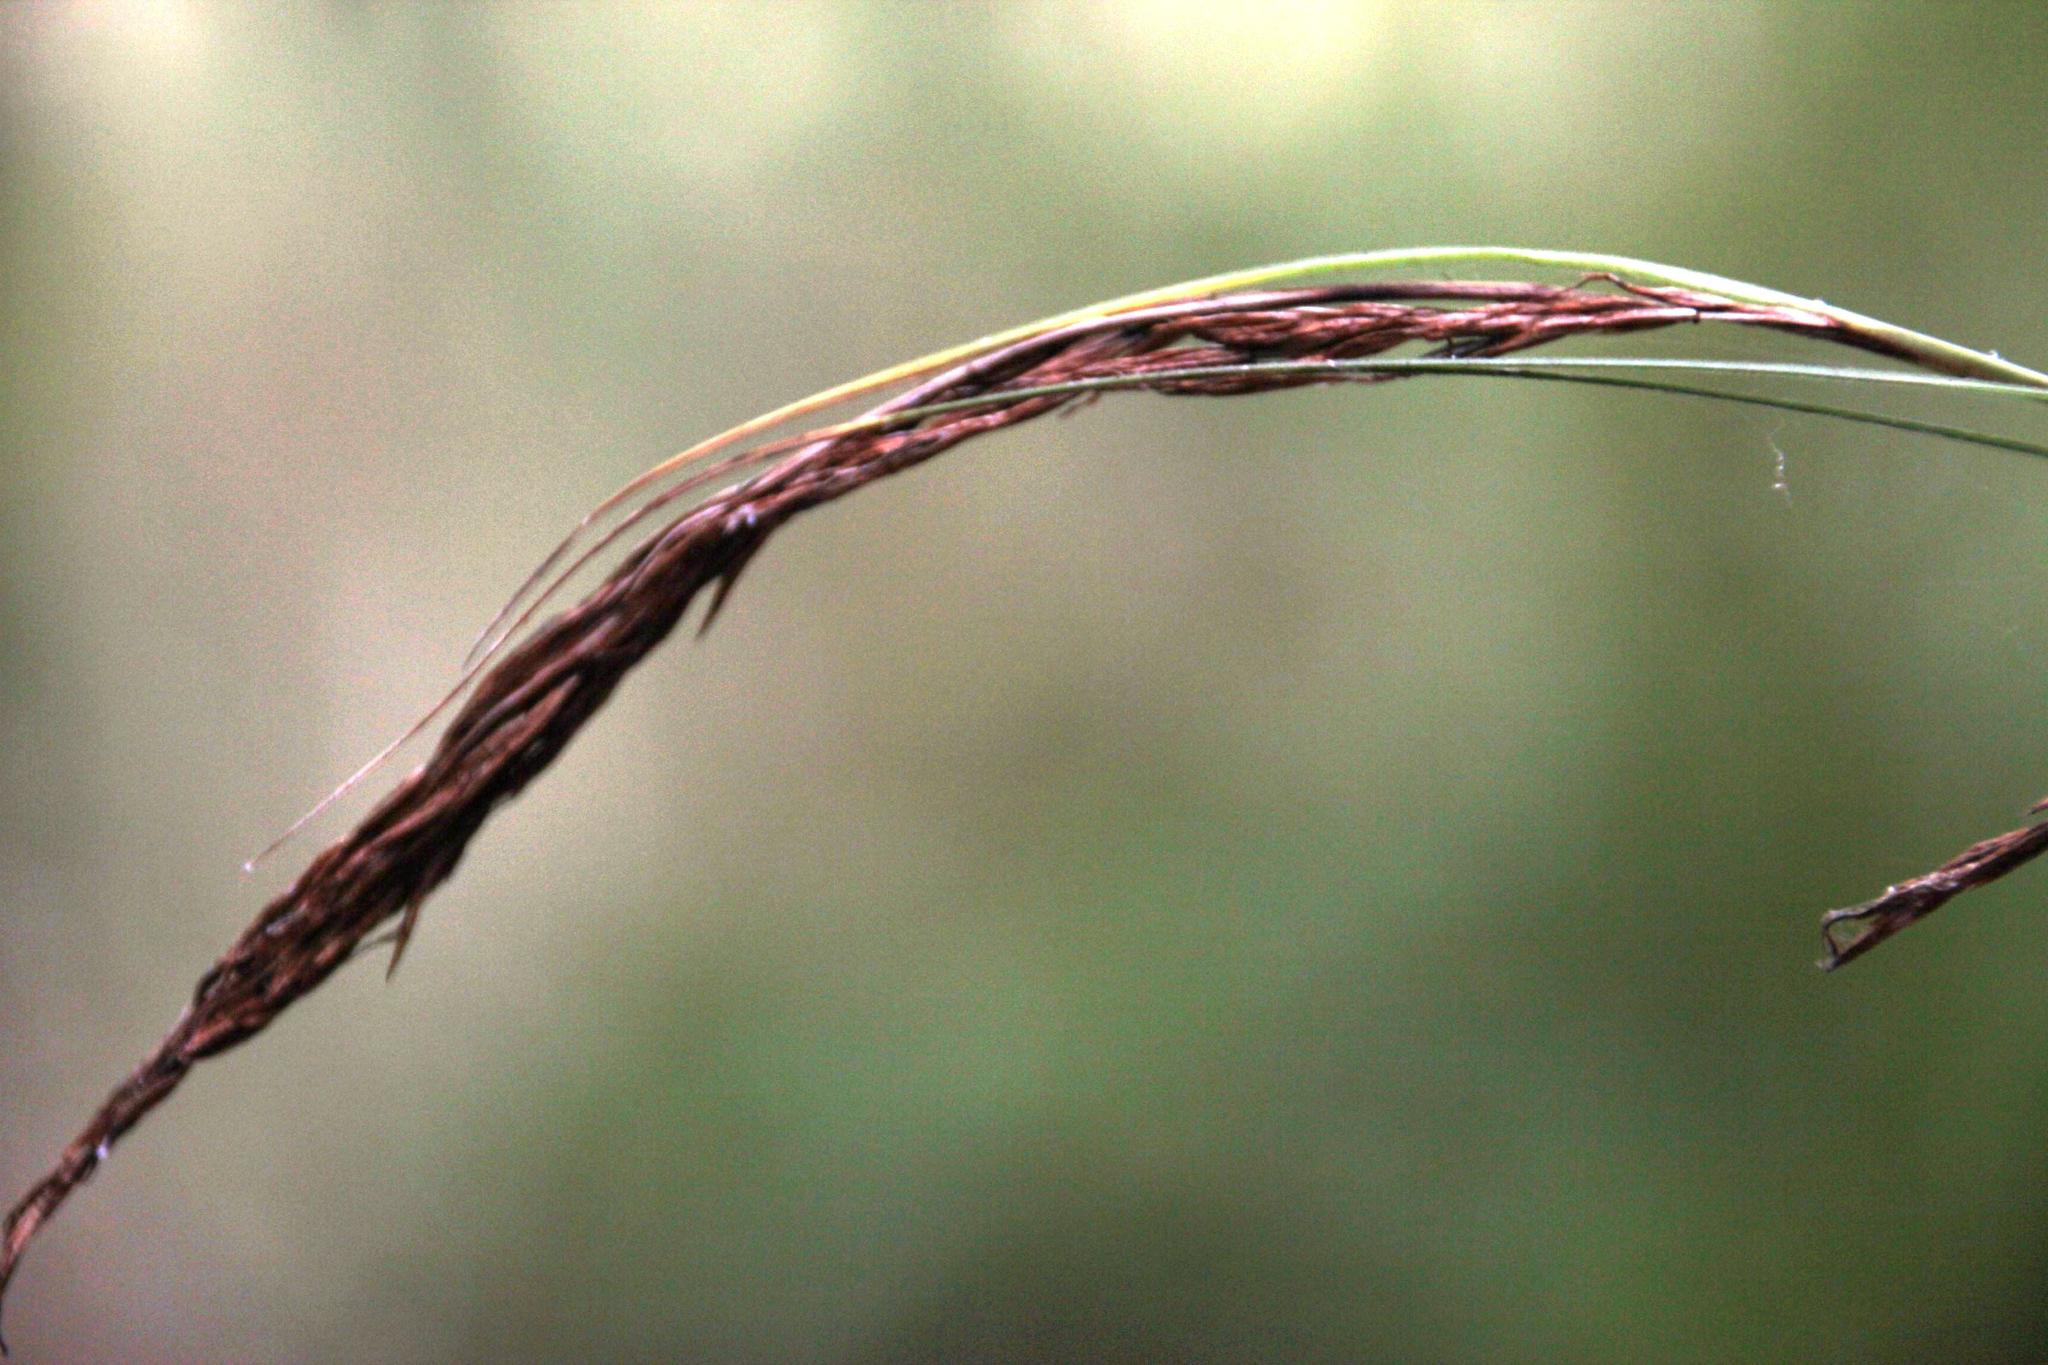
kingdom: Plantae
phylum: Tracheophyta
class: Liliopsida
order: Poales
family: Cyperaceae
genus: Carex
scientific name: Carex lancea
